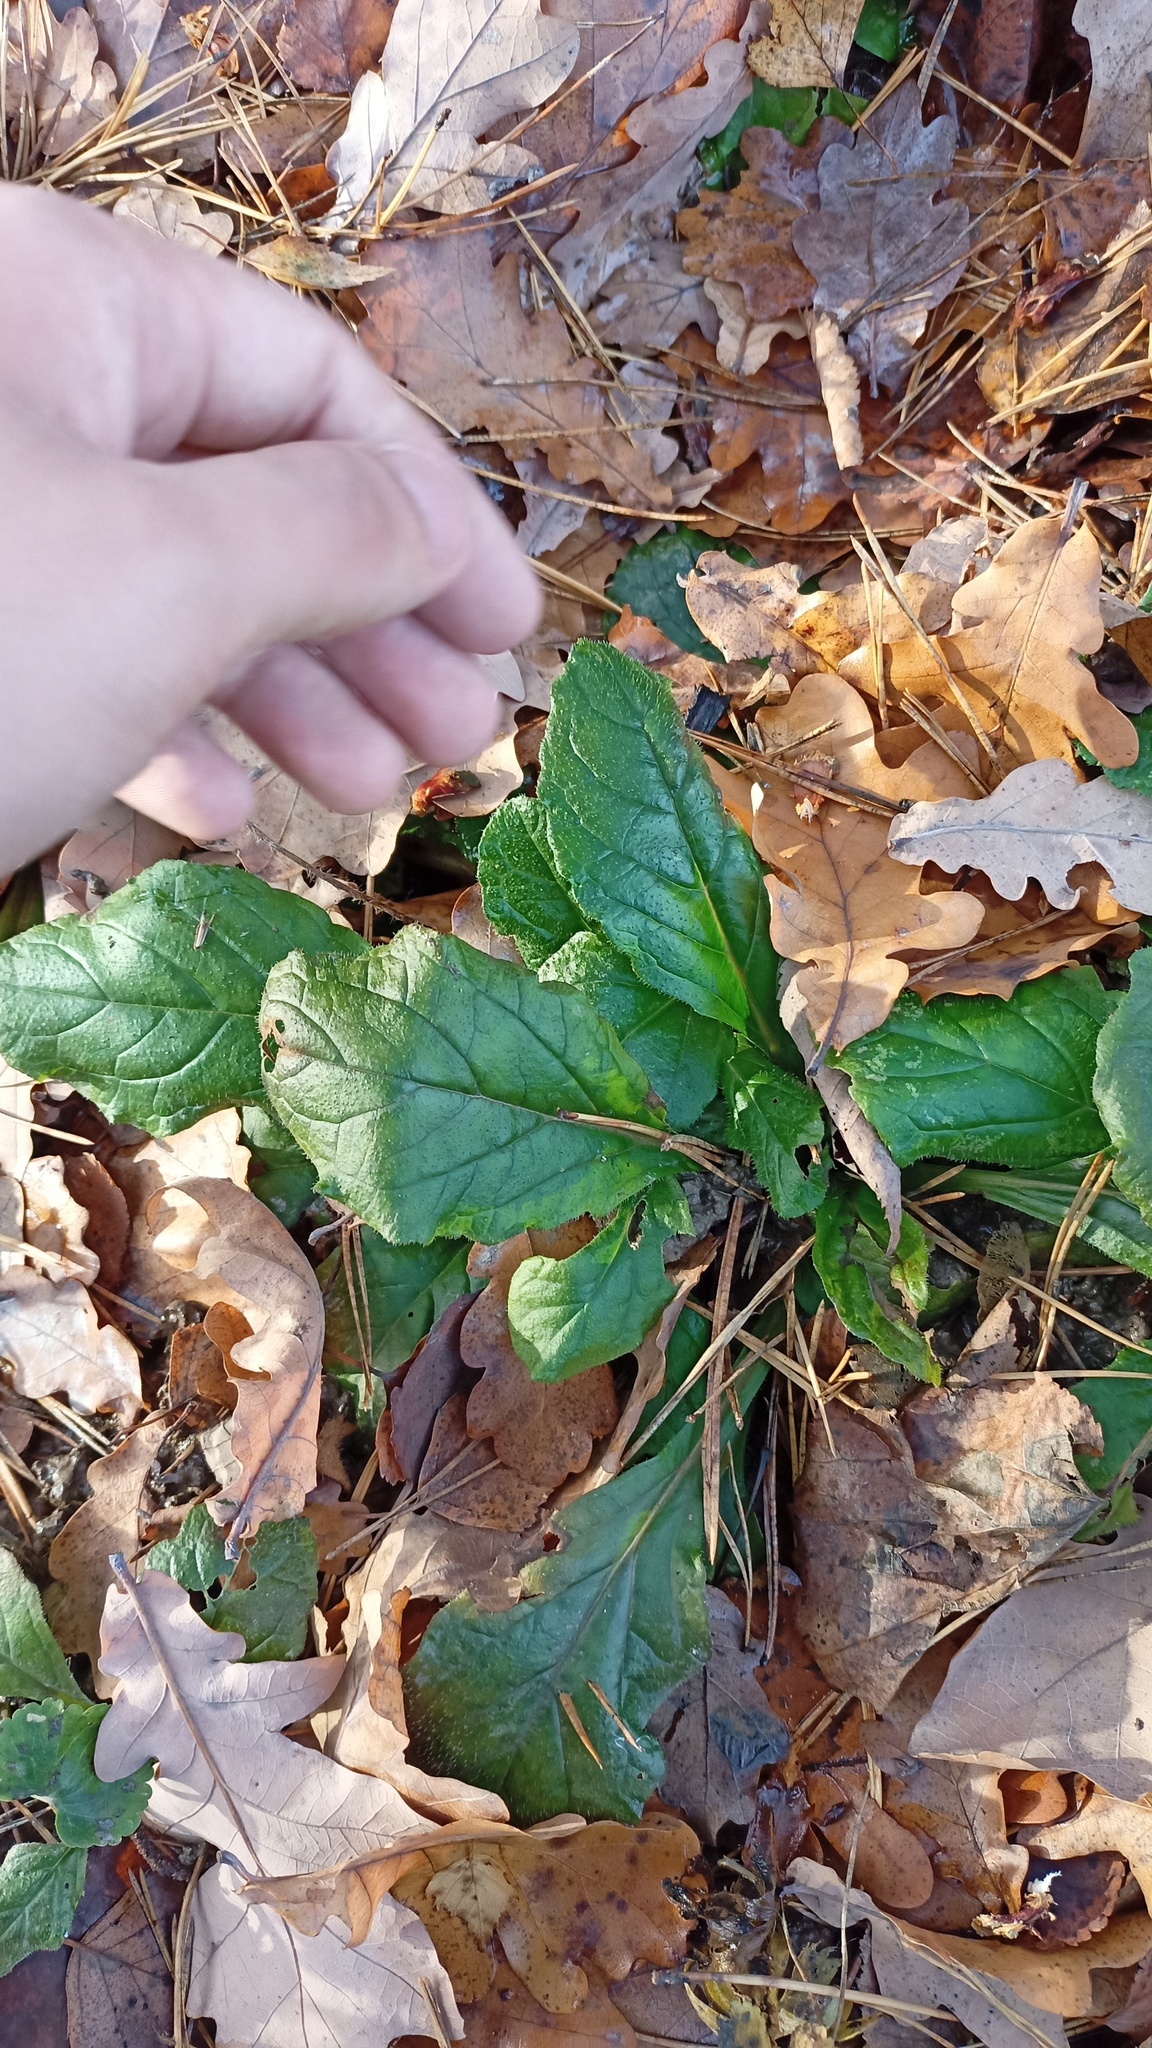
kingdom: Plantae
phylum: Tracheophyta
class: Magnoliopsida
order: Lamiales
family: Lamiaceae
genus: Ajuga
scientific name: Ajuga reptans
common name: Bugle
